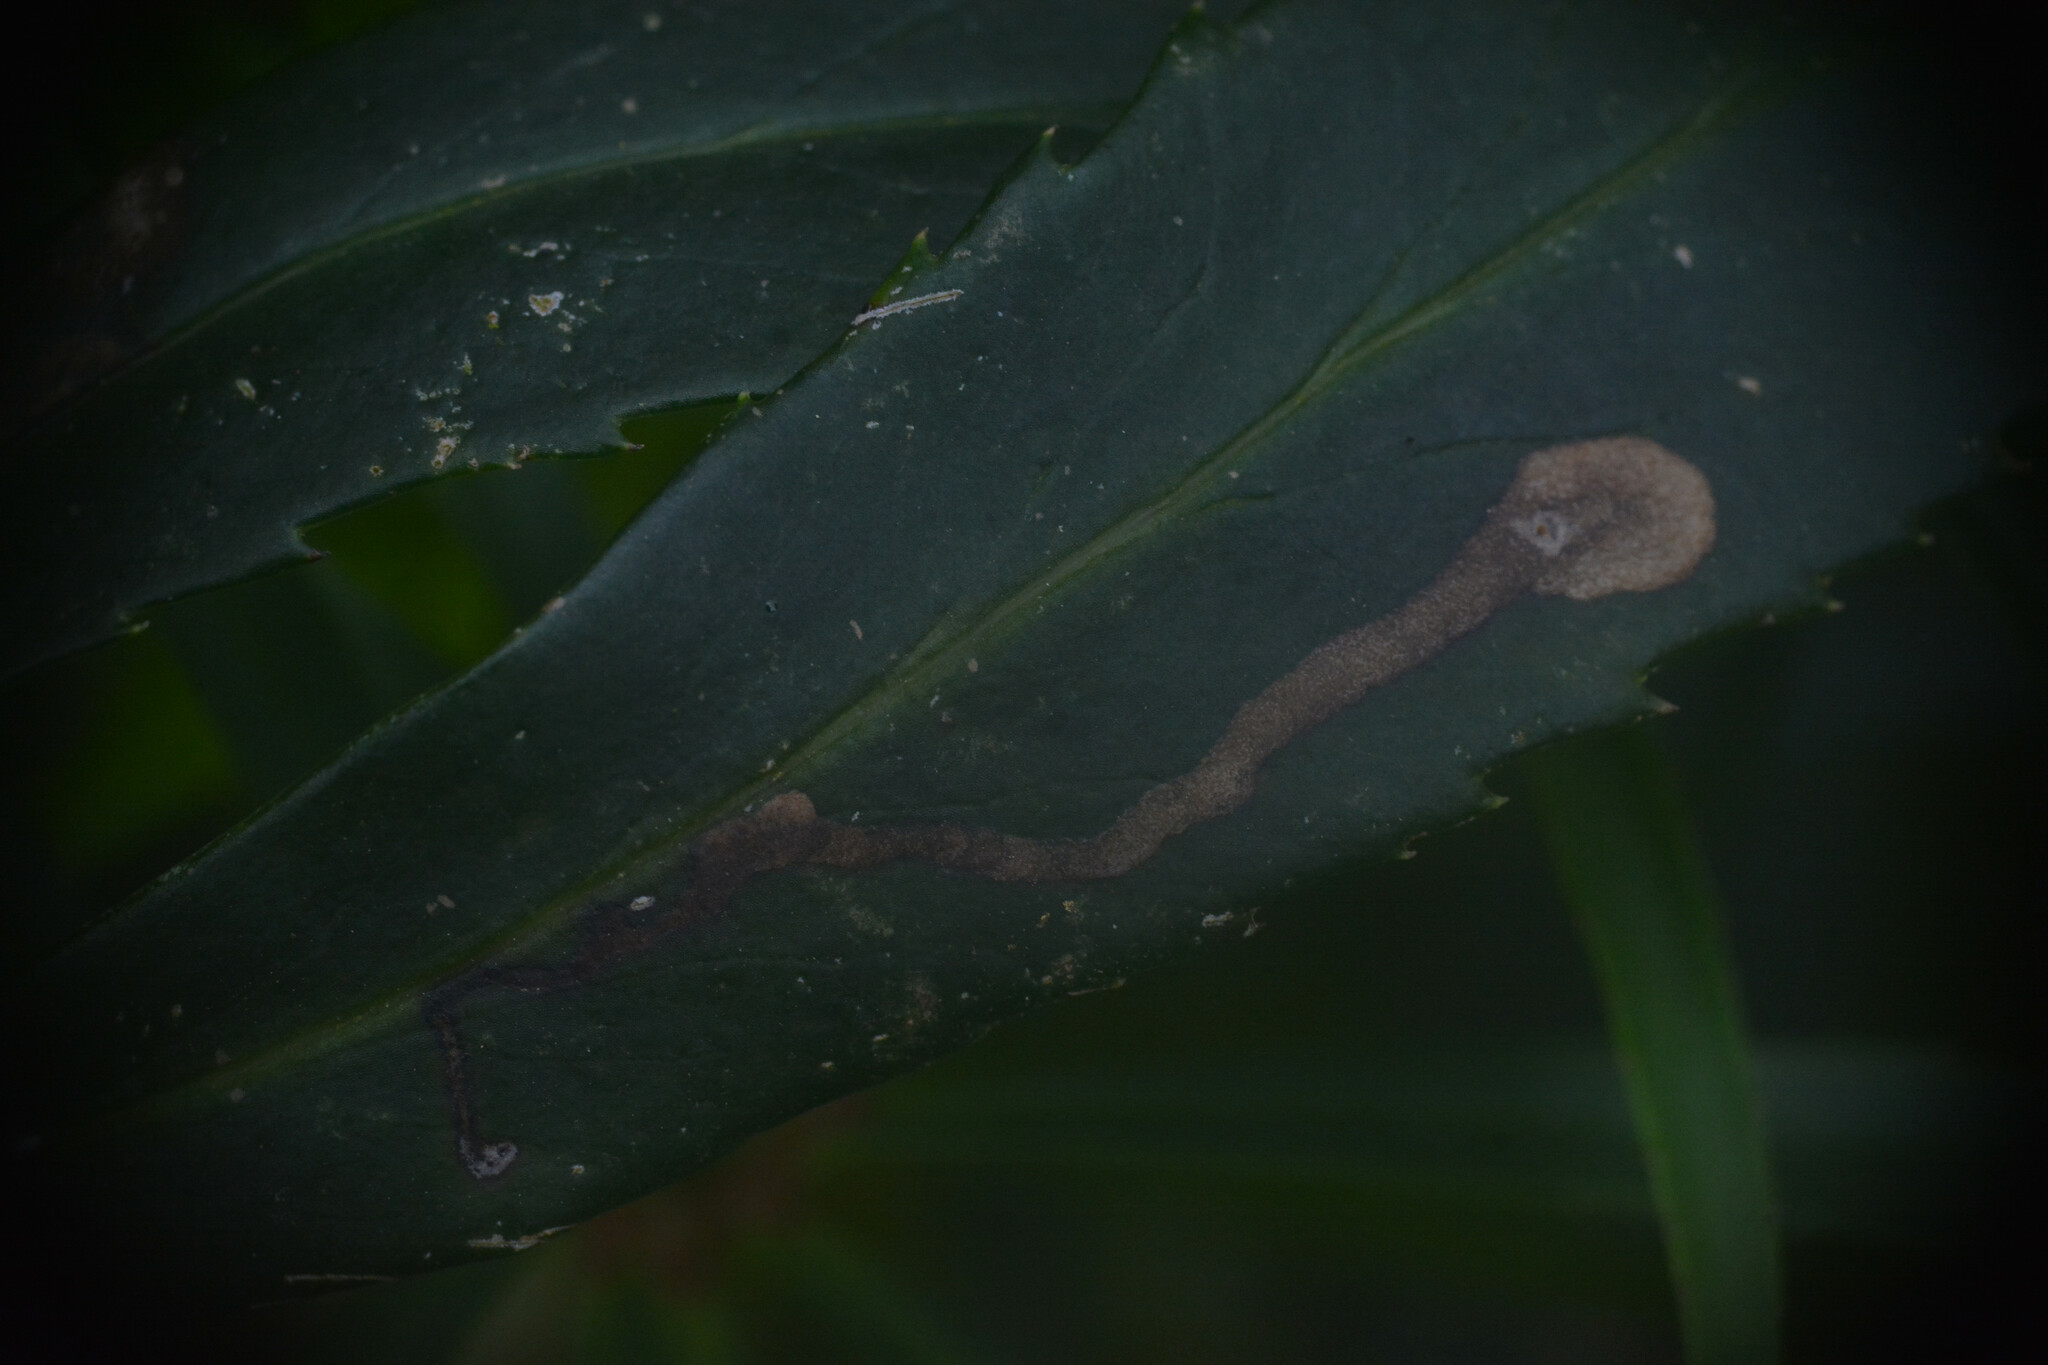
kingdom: Animalia
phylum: Arthropoda
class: Insecta
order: Diptera
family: Agromyzidae
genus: Phytomyza
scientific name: Phytomyza hellebori
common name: Fly
